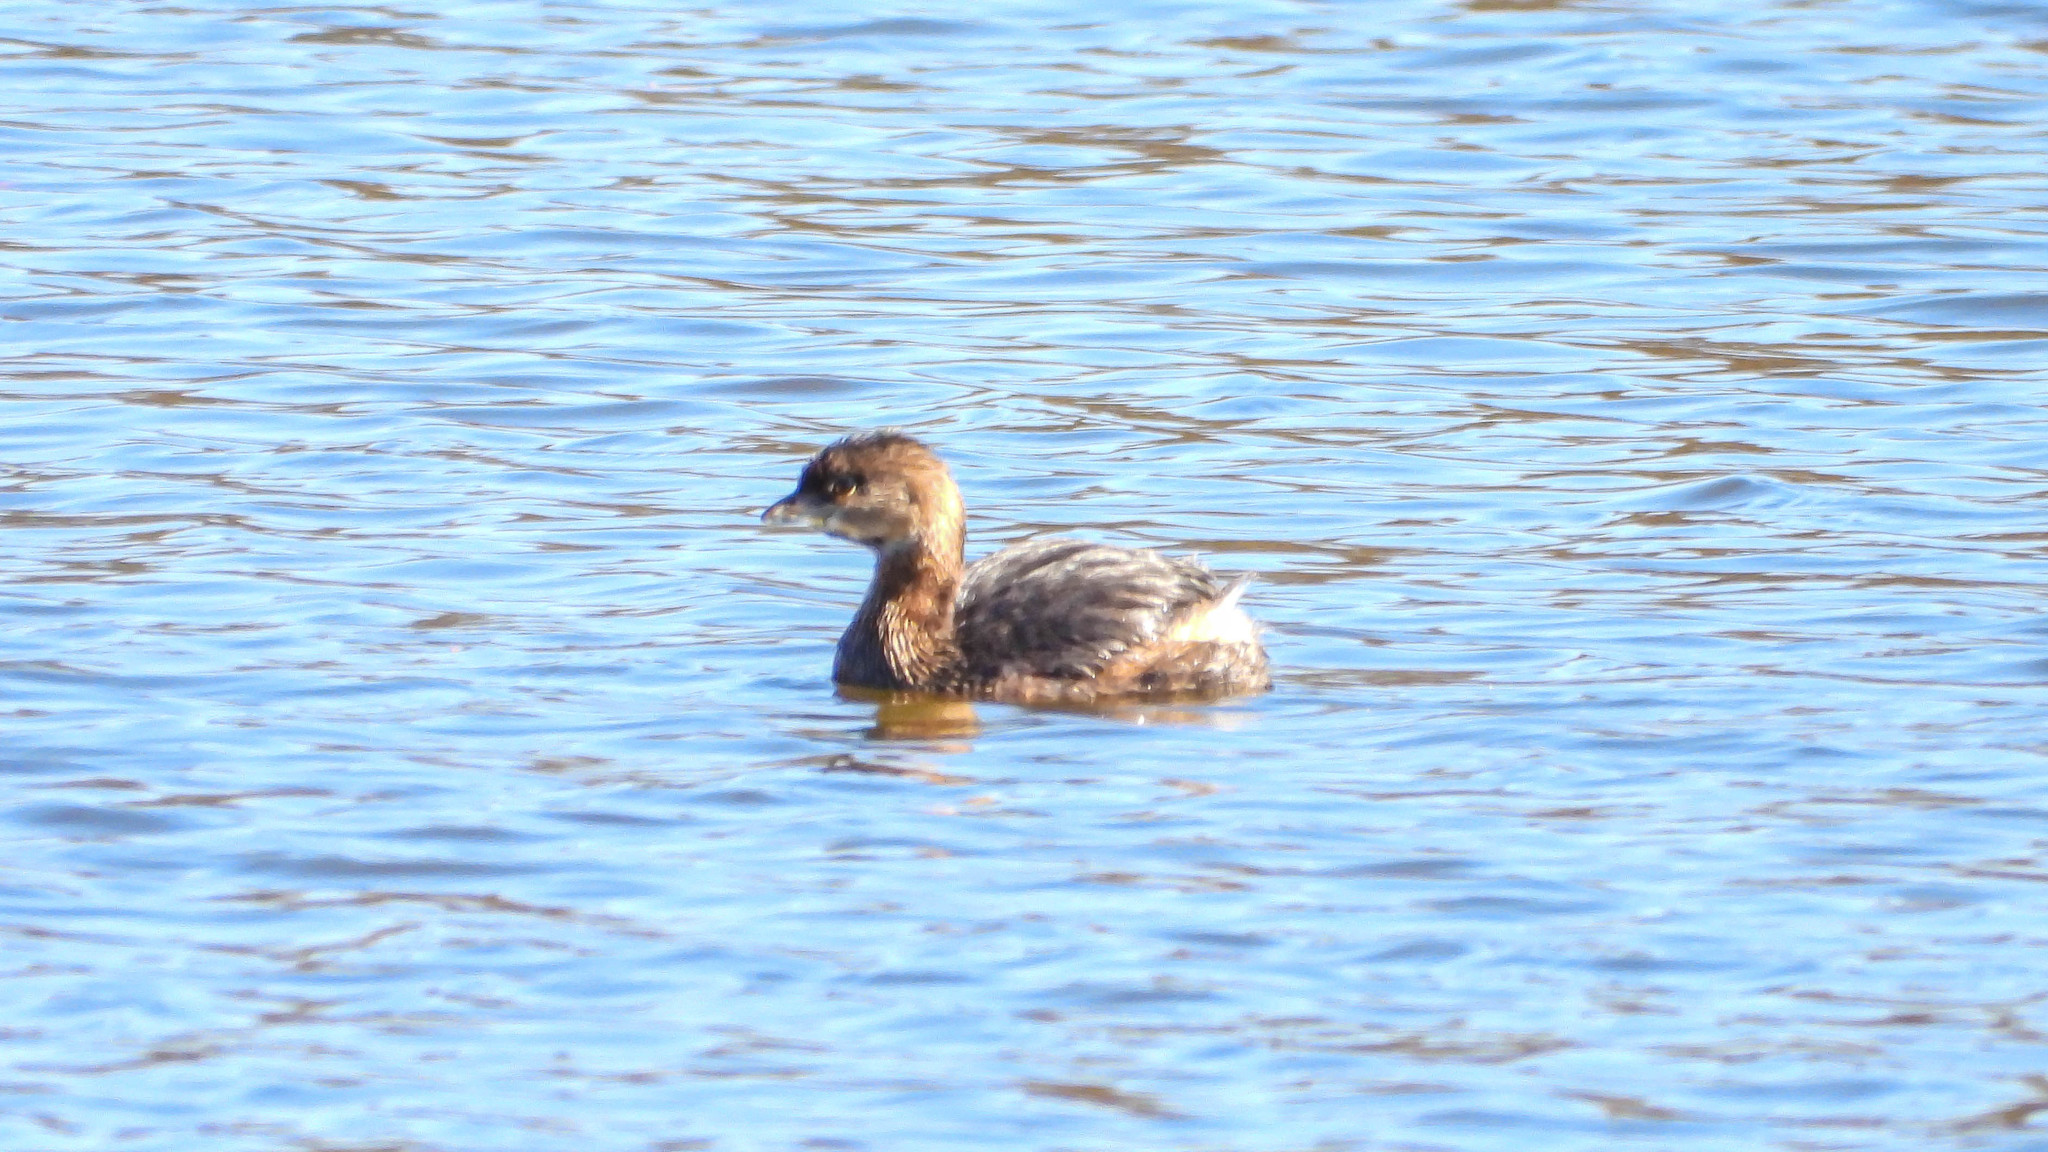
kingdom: Animalia
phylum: Chordata
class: Aves
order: Podicipediformes
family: Podicipedidae
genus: Podilymbus
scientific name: Podilymbus podiceps
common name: Pied-billed grebe
